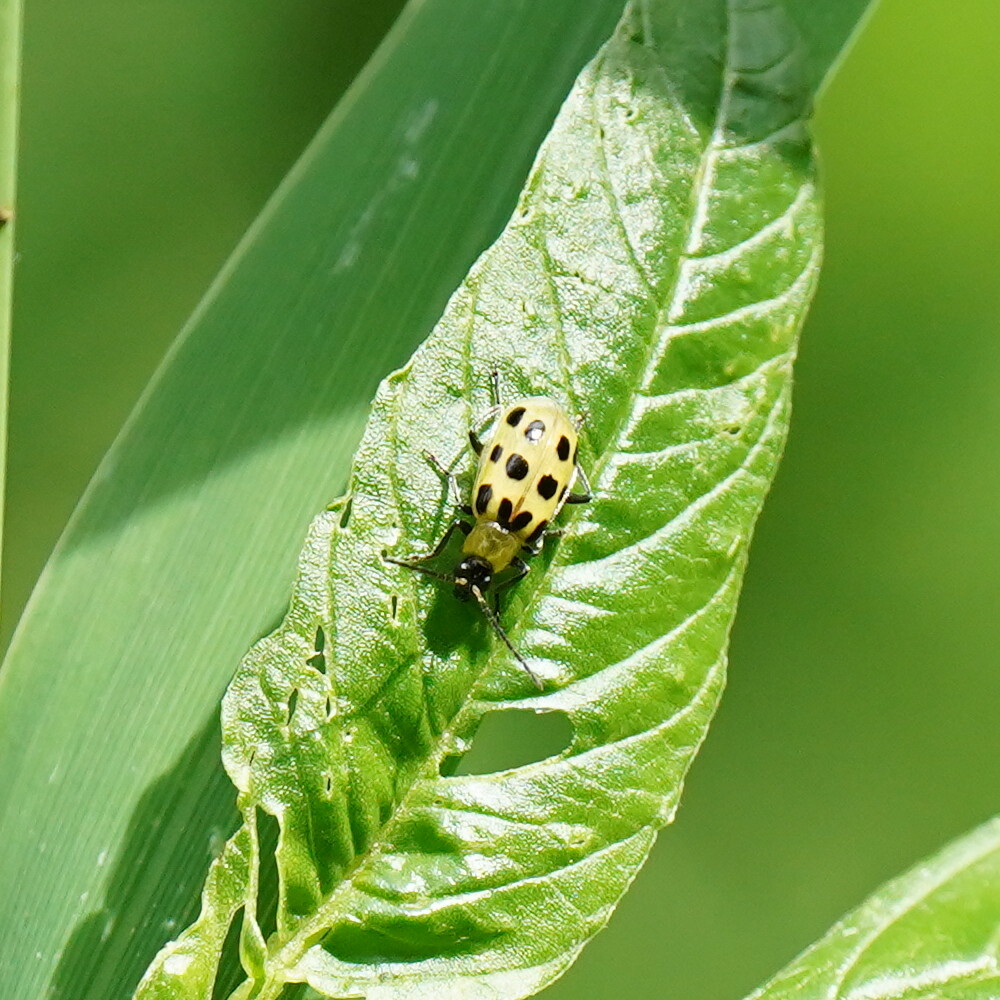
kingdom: Animalia
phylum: Arthropoda
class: Insecta
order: Coleoptera
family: Chrysomelidae
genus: Diabrotica
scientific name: Diabrotica undecimpunctata
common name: Spotted cucumber beetle
